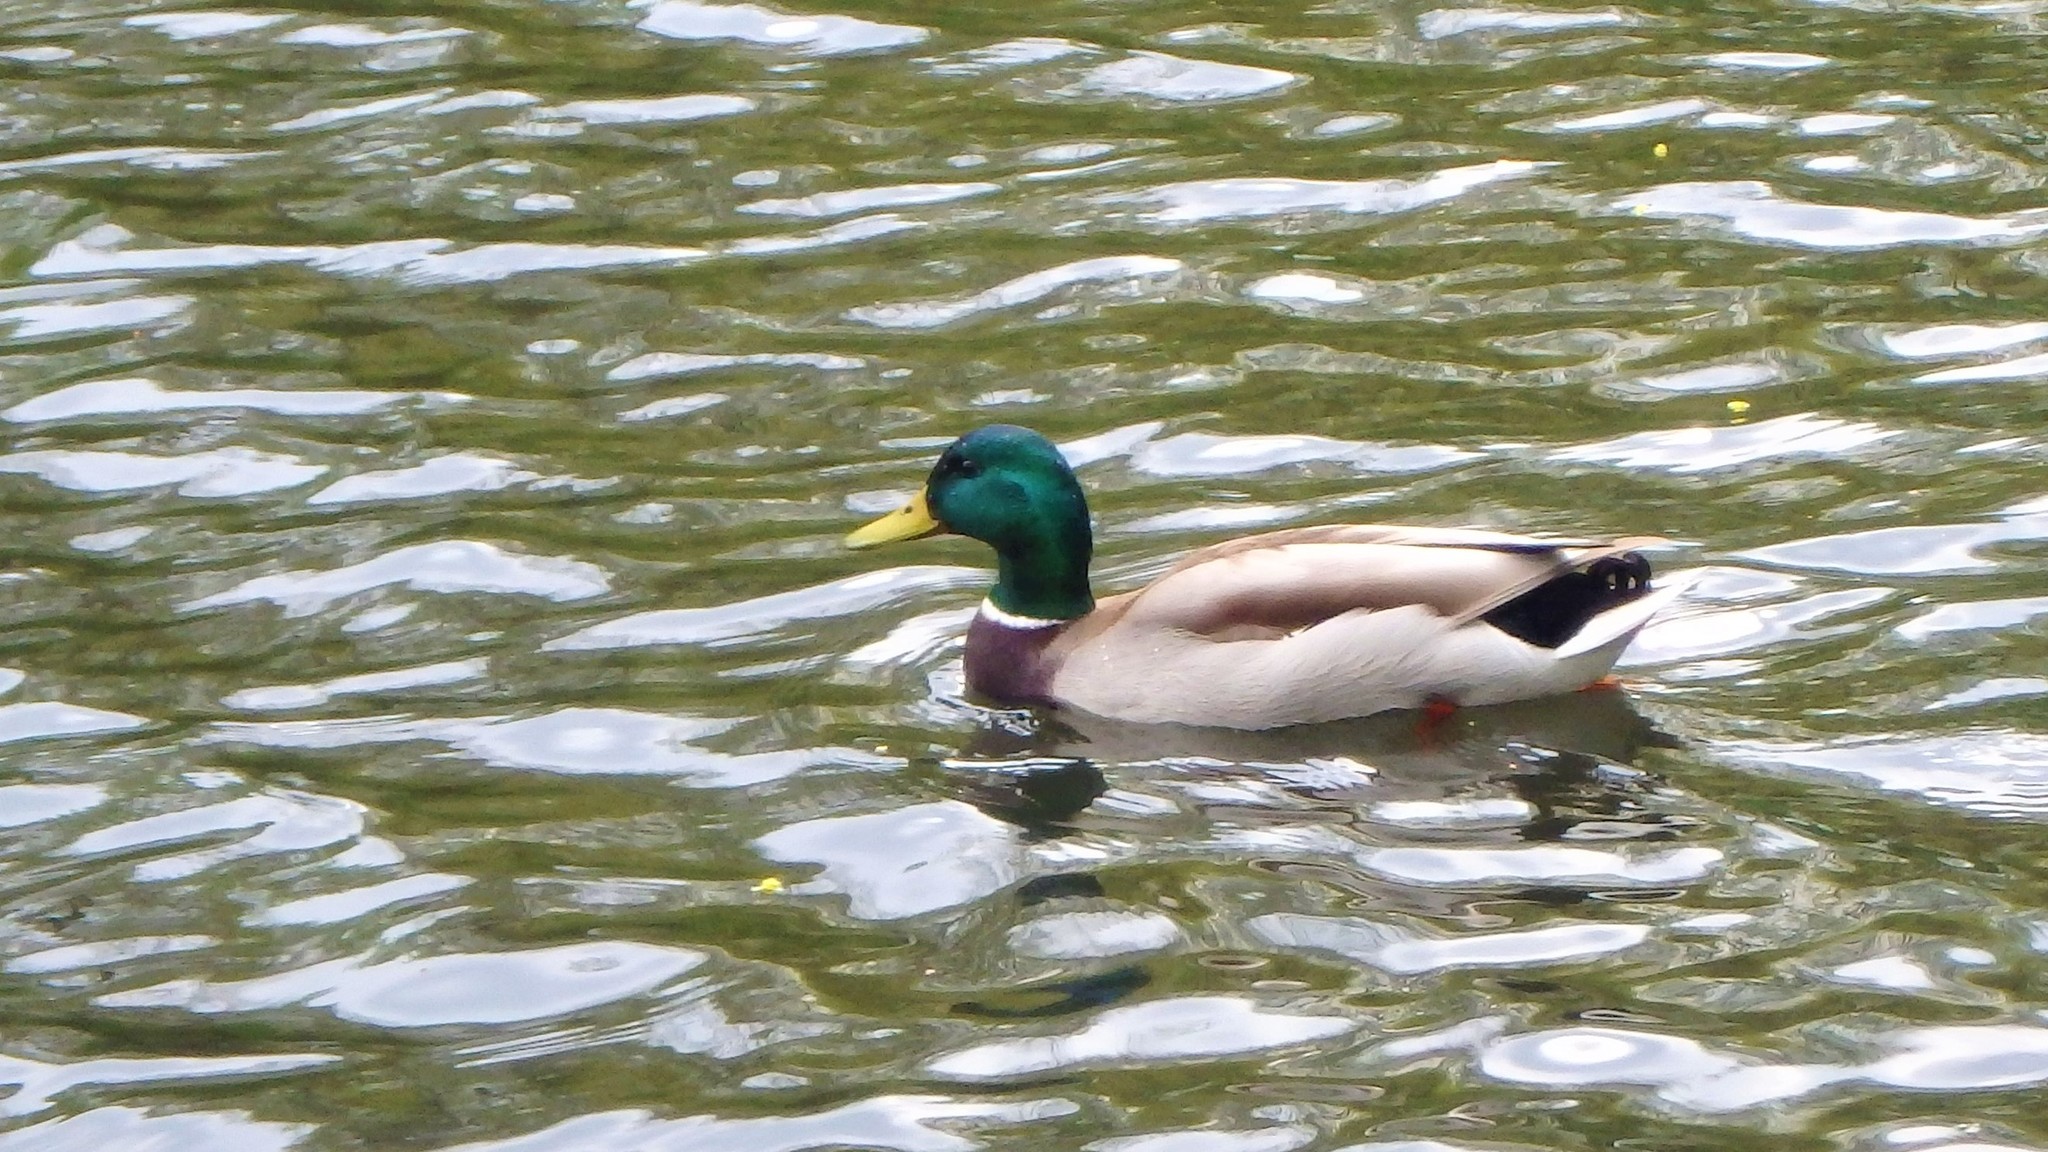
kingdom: Animalia
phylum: Chordata
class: Aves
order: Anseriformes
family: Anatidae
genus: Anas
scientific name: Anas platyrhynchos
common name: Mallard
